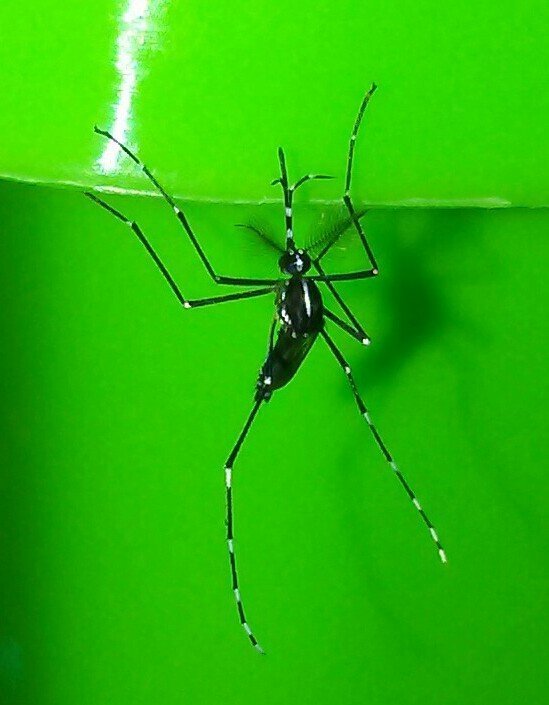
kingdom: Animalia
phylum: Arthropoda
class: Insecta
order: Diptera
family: Culicidae
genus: Aedes
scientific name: Aedes albopictus
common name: Tiger mosquito
